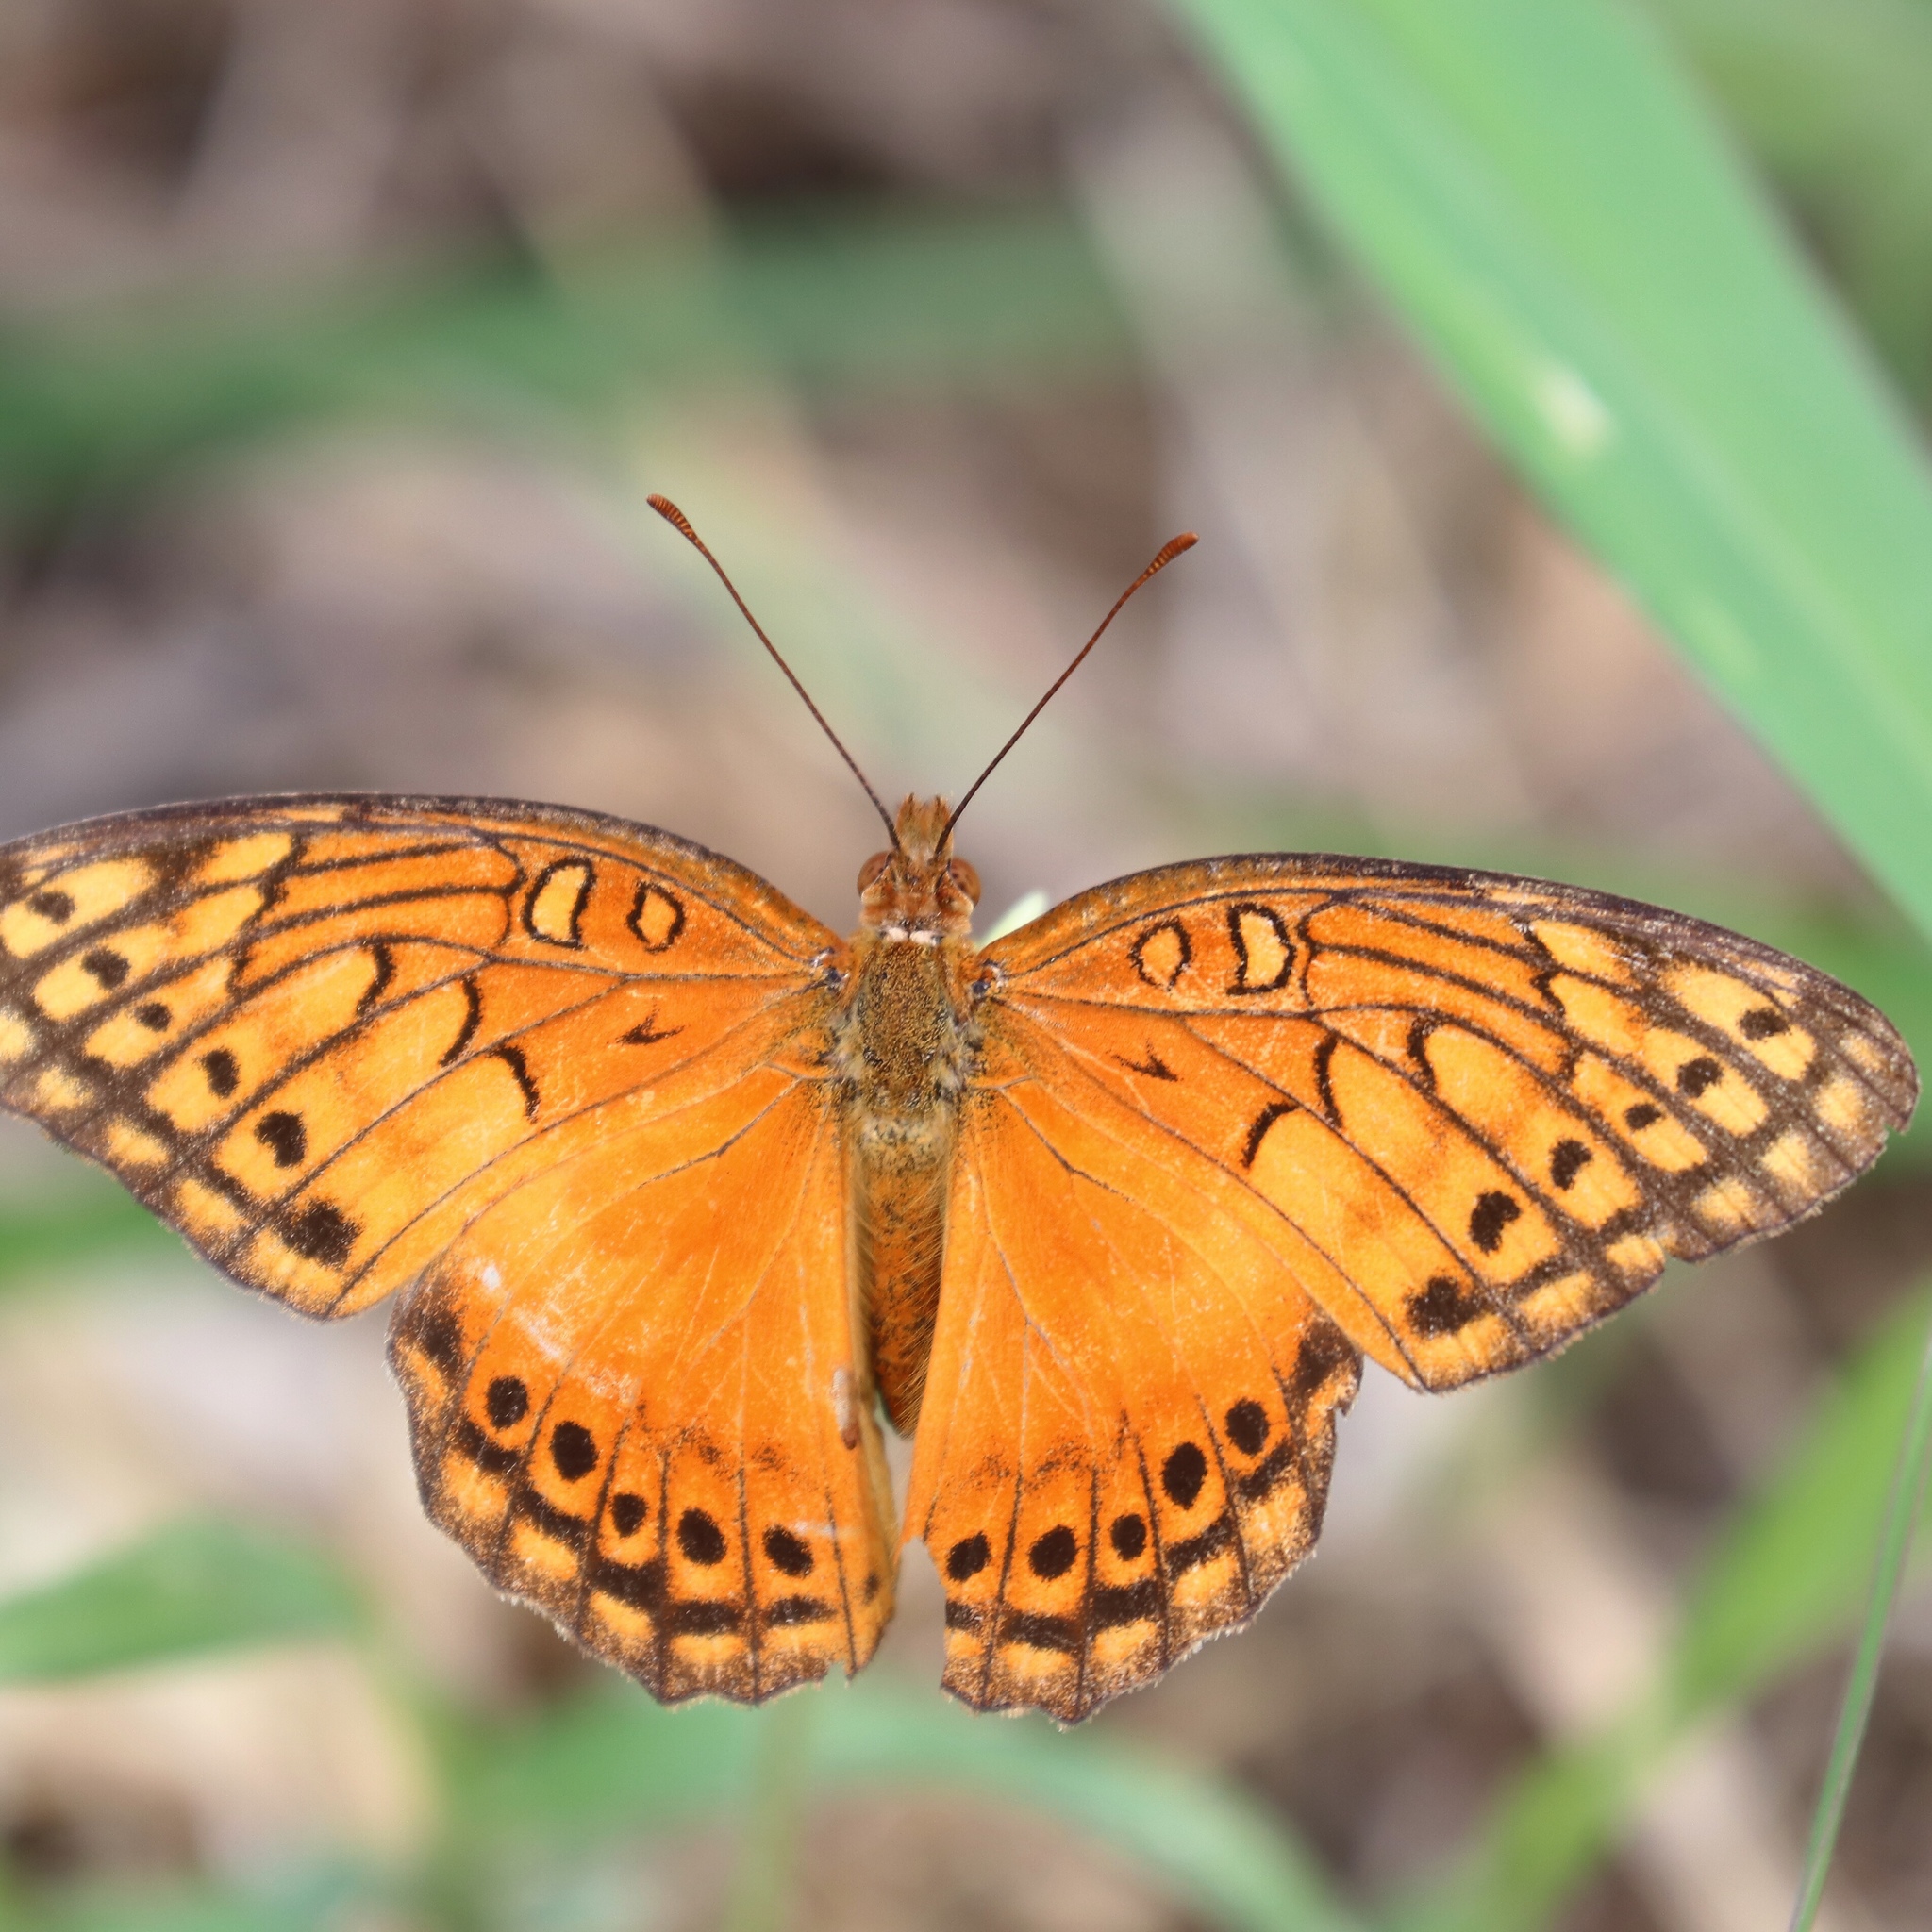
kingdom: Animalia
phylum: Arthropoda
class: Insecta
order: Lepidoptera
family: Nymphalidae
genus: Euptoieta
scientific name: Euptoieta hegesia
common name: Mexican fritillary
